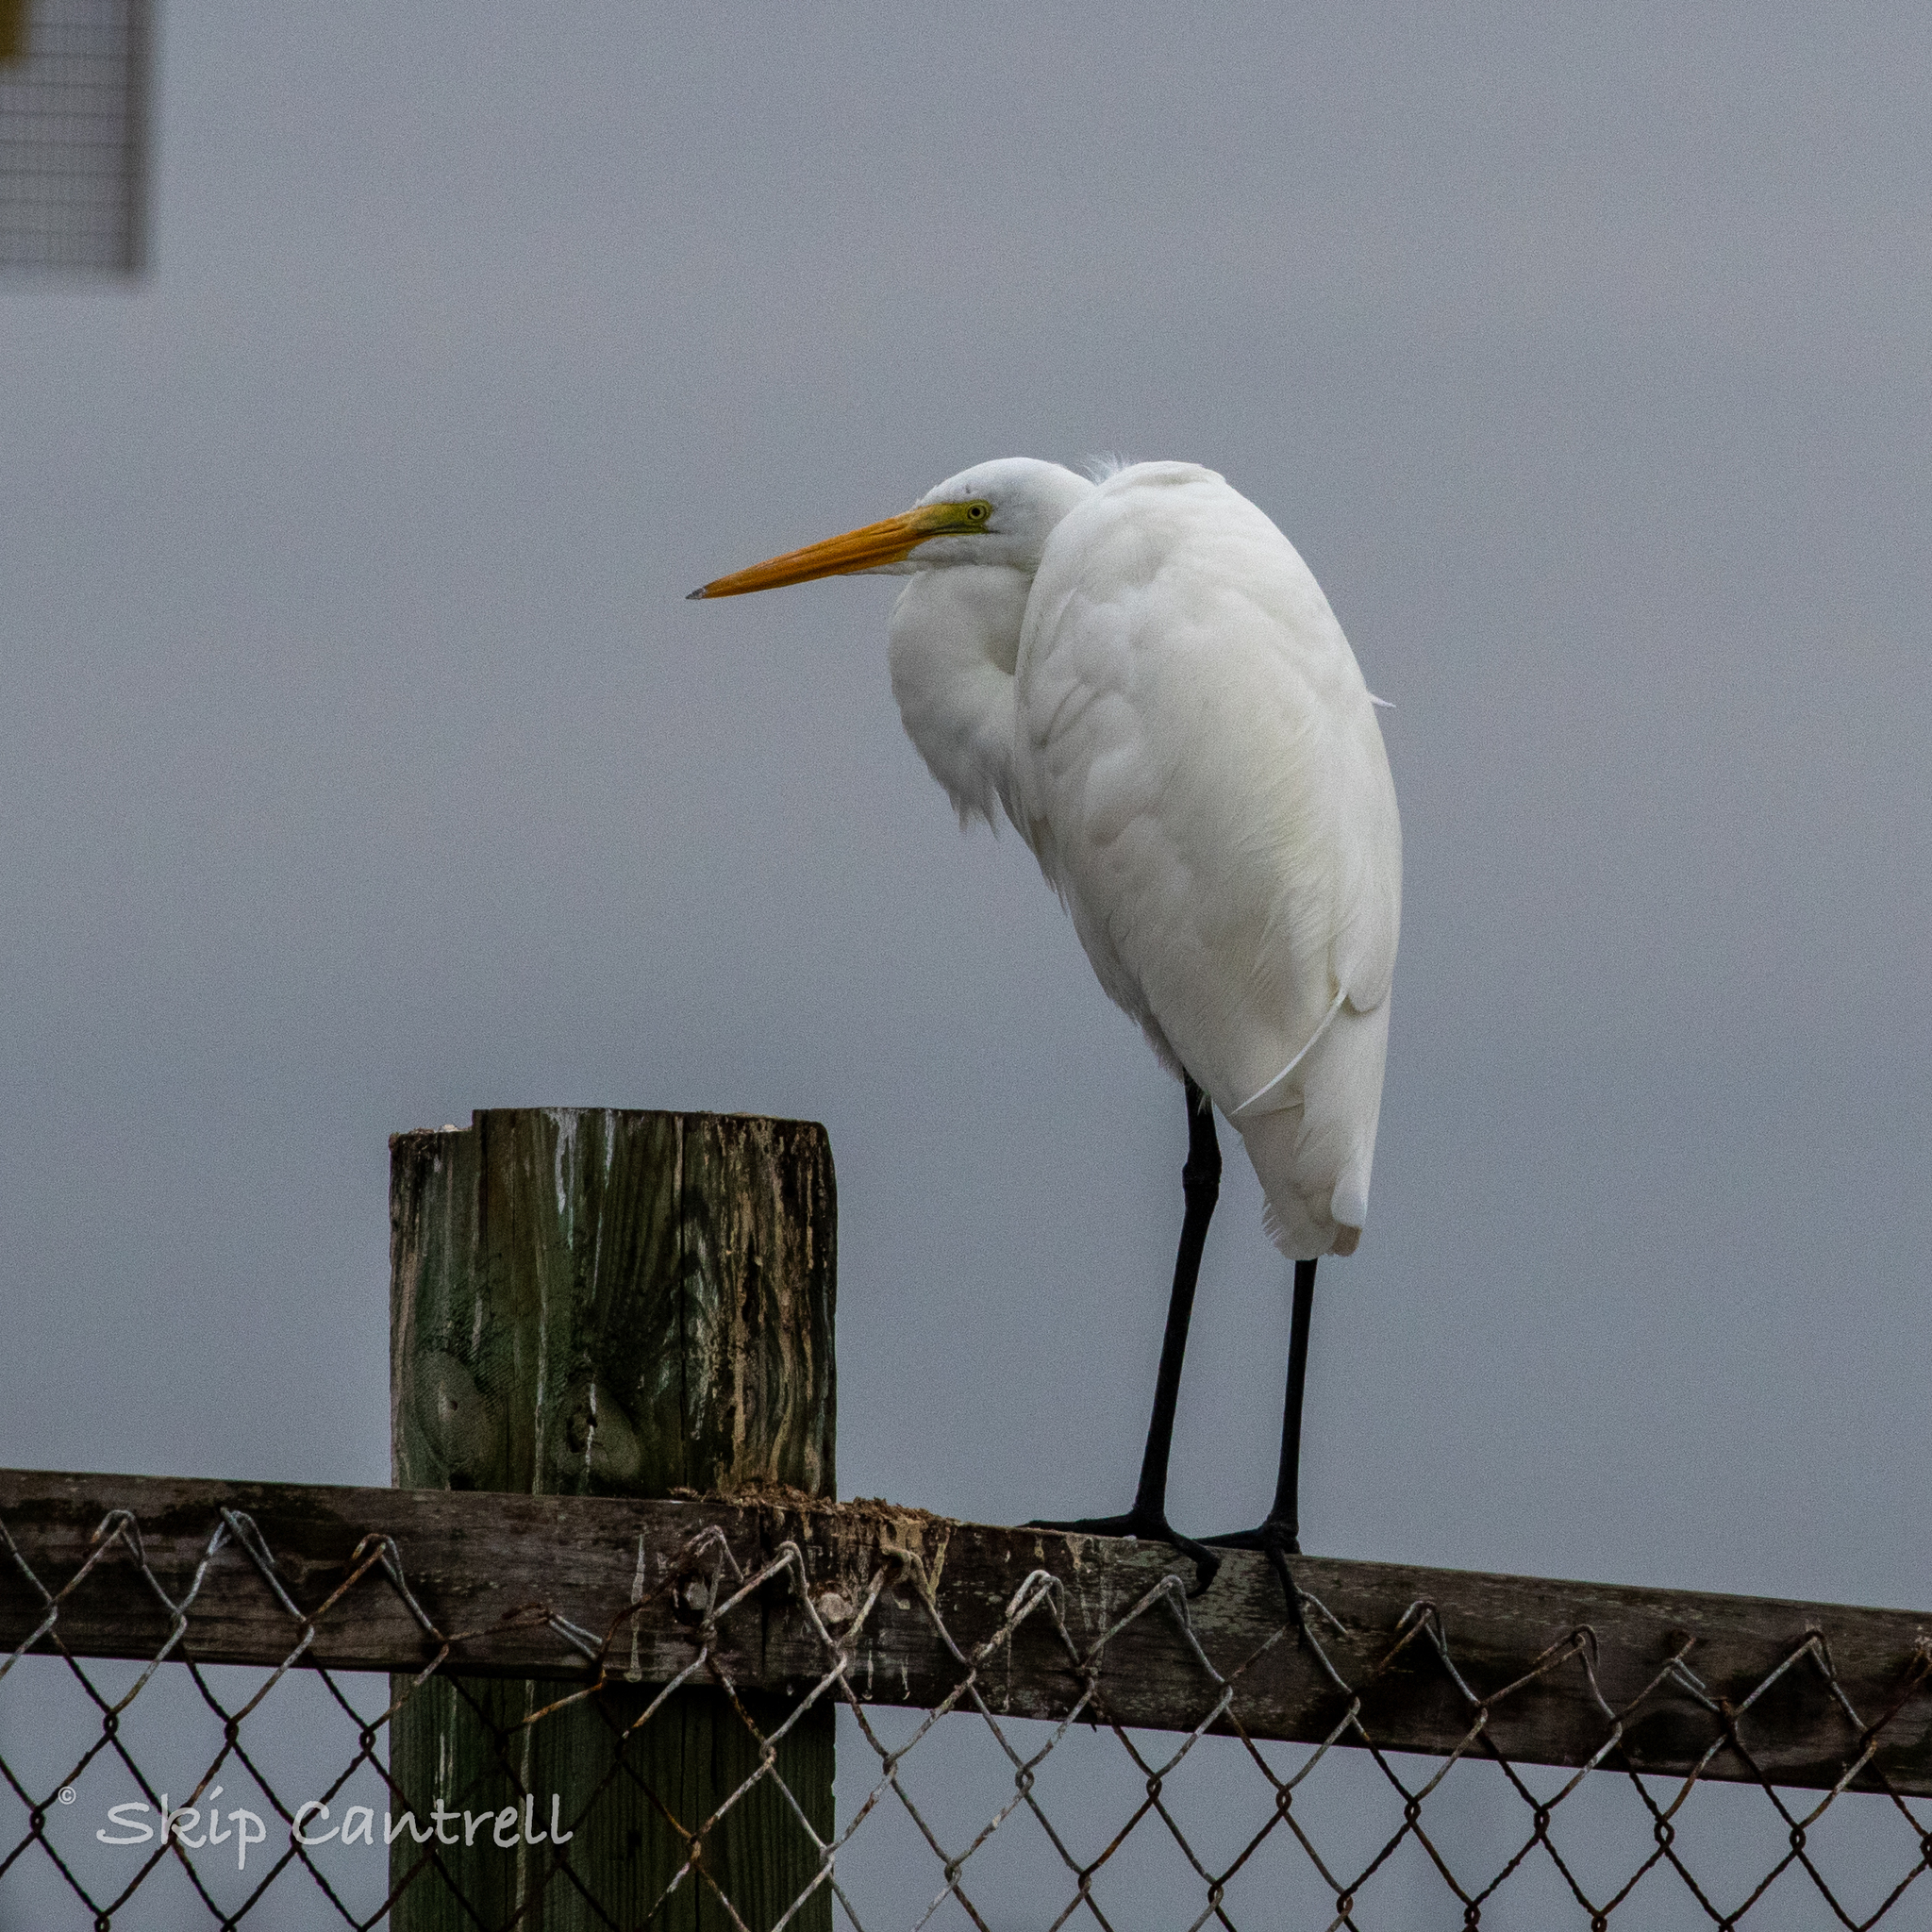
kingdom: Animalia
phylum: Chordata
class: Aves
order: Pelecaniformes
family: Ardeidae
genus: Ardea
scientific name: Ardea alba
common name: Great egret
